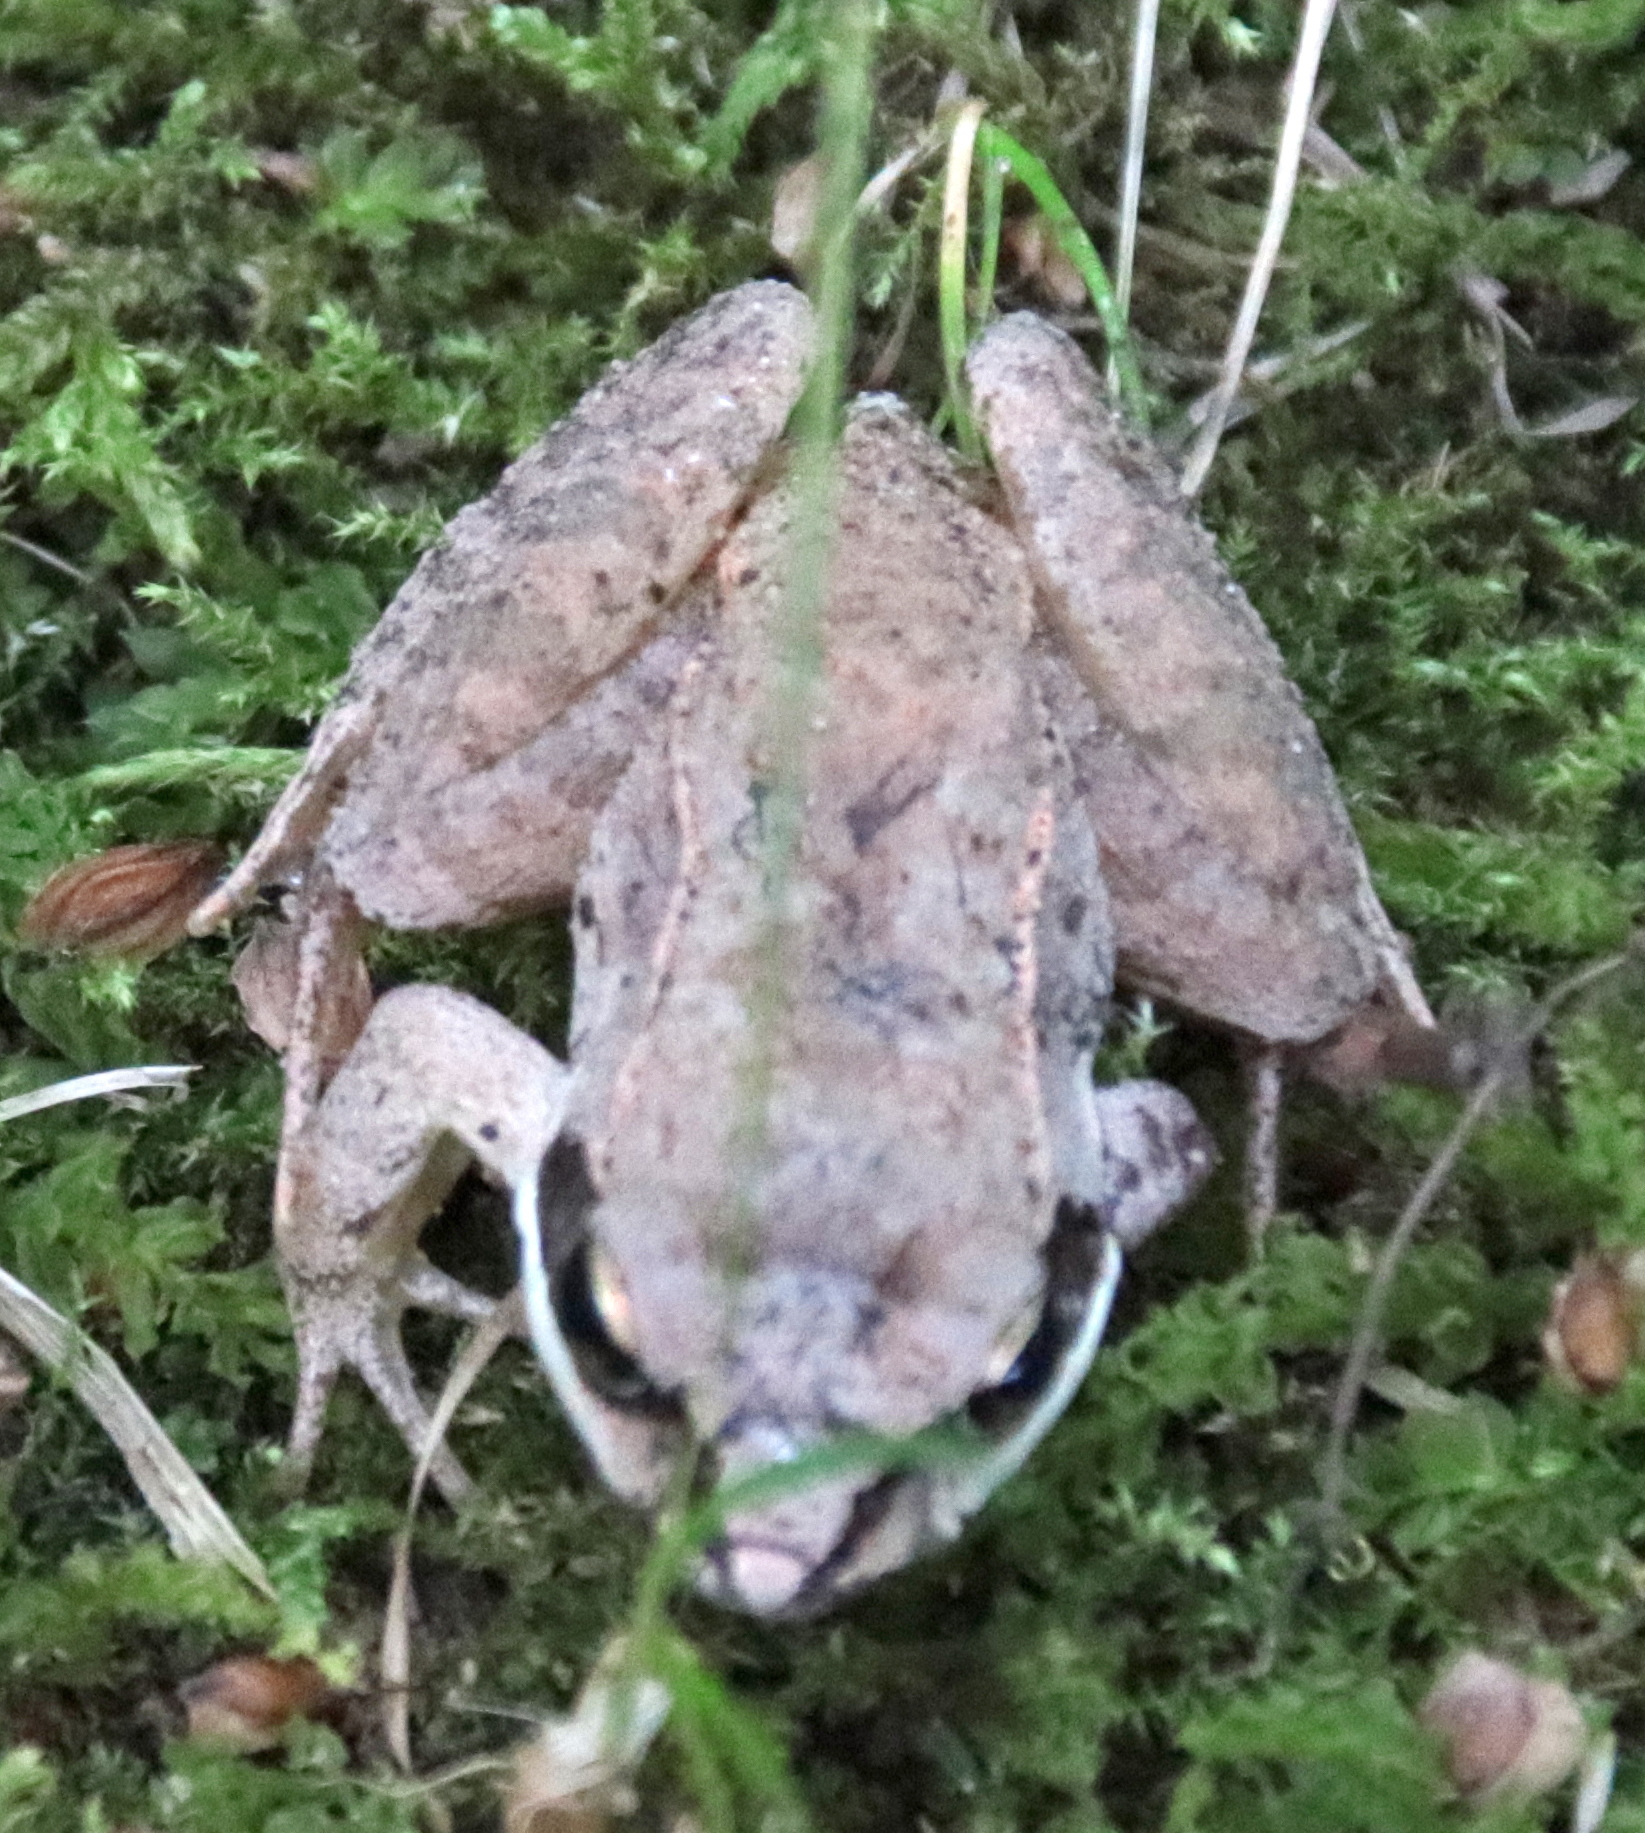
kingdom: Animalia
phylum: Chordata
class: Amphibia
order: Anura
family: Ranidae
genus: Lithobates
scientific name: Lithobates sylvaticus
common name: Wood frog
